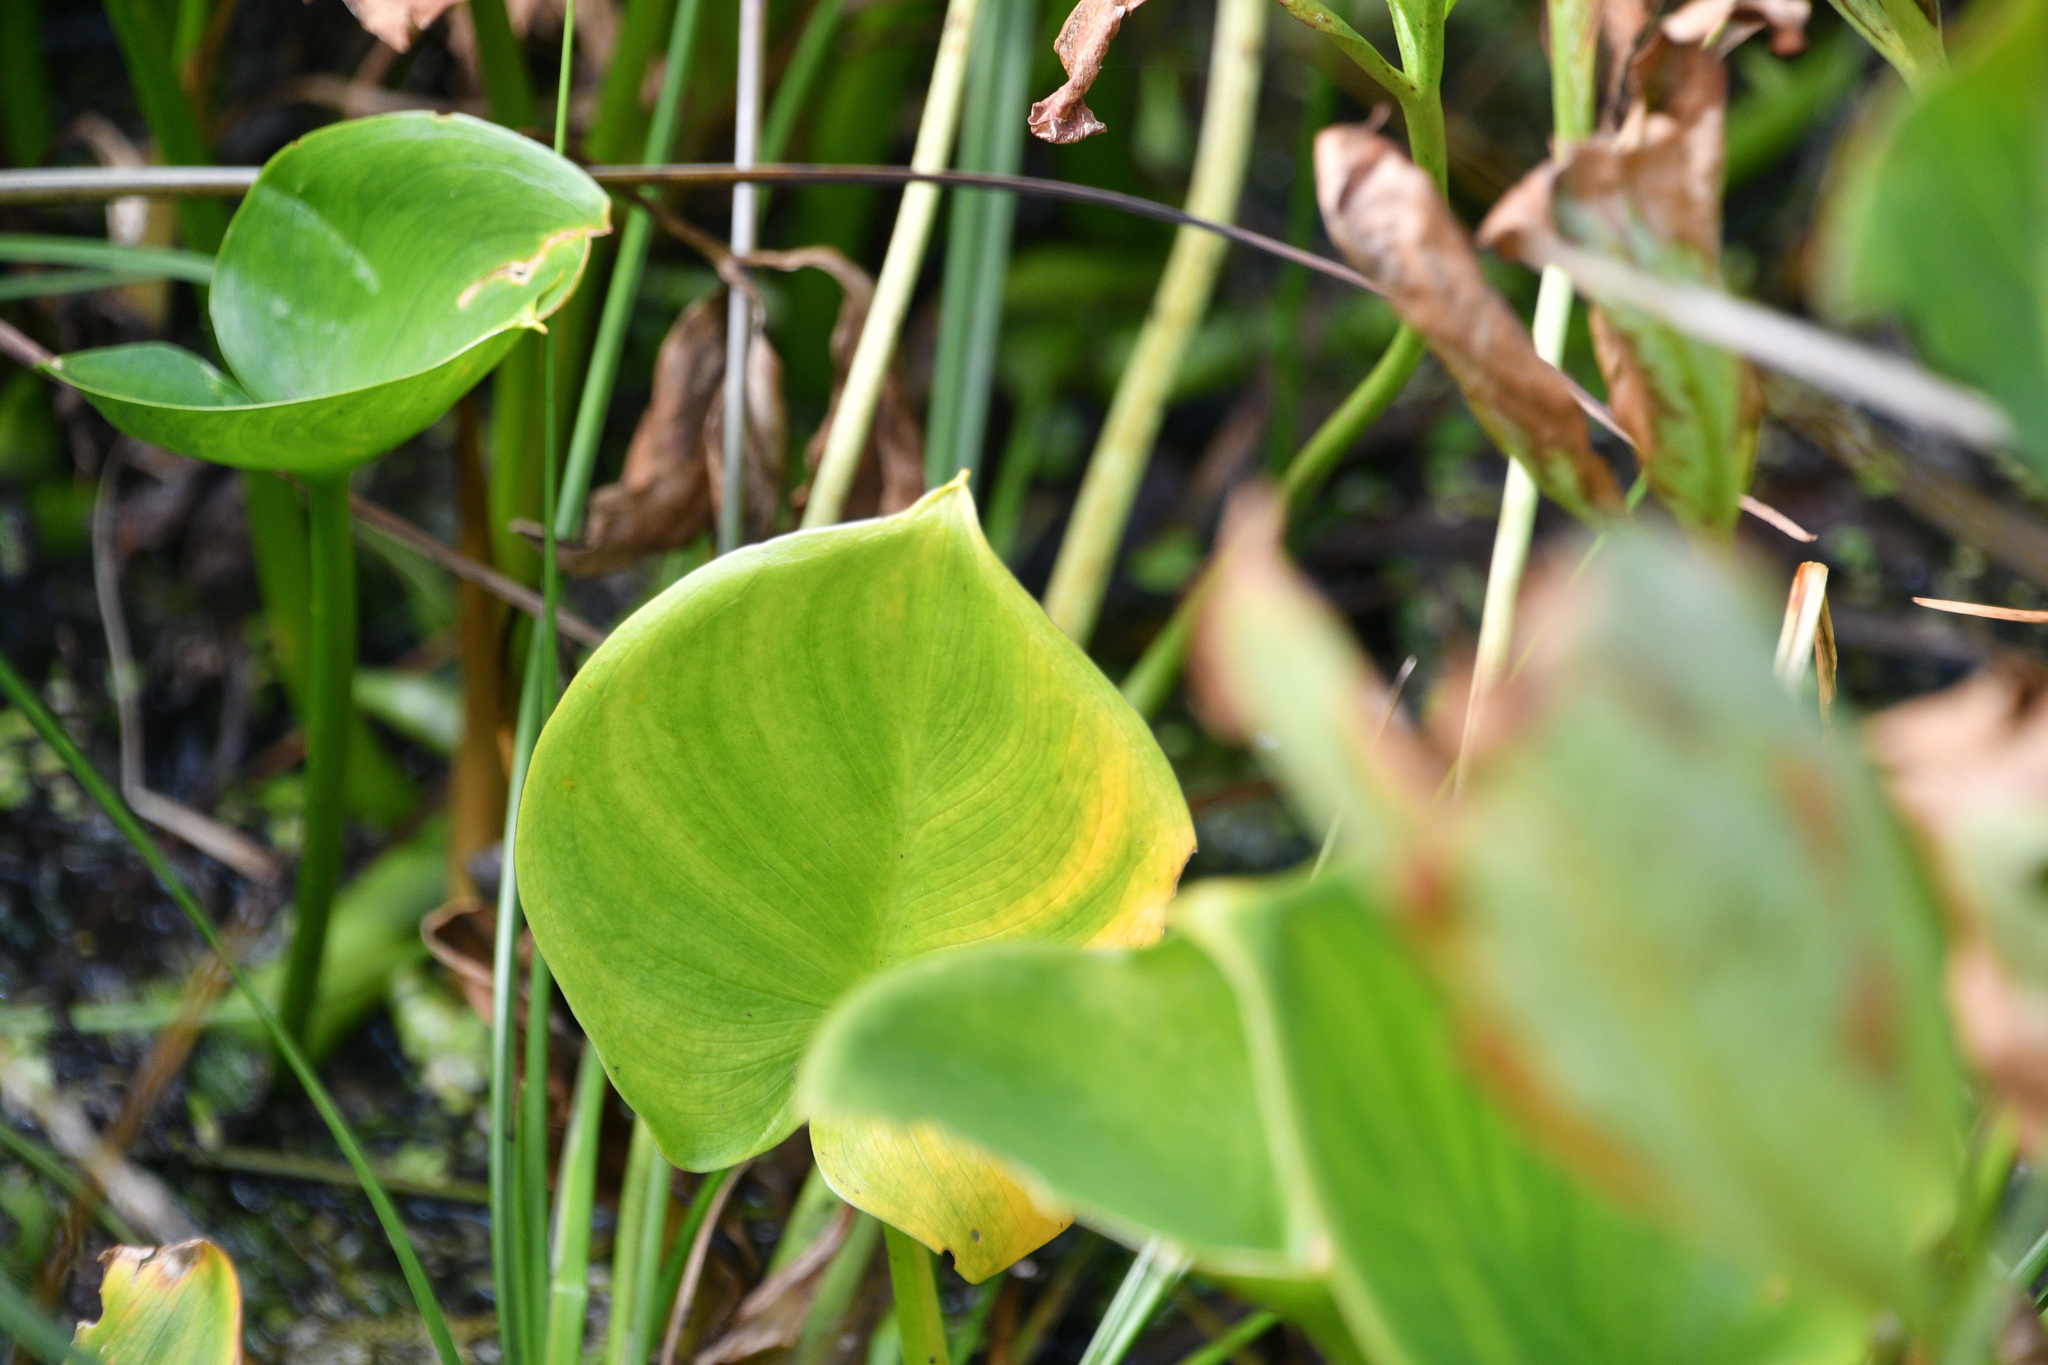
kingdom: Plantae
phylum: Tracheophyta
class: Liliopsida
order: Alismatales
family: Araceae
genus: Calla
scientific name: Calla palustris
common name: Bog arum
